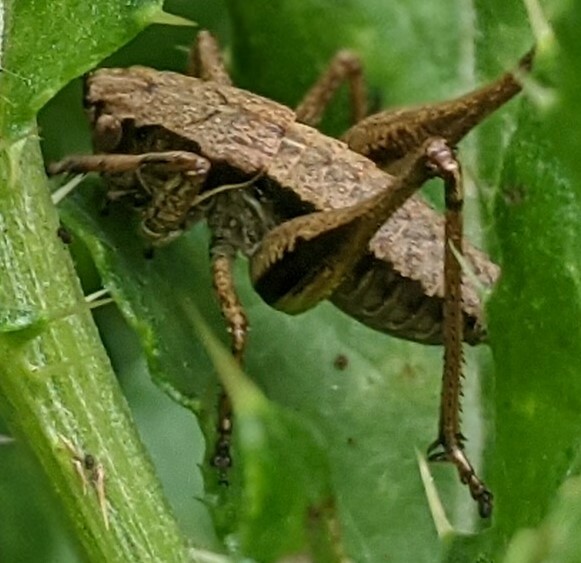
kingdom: Animalia
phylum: Arthropoda
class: Insecta
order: Orthoptera
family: Tettigoniidae
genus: Pholidoptera
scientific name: Pholidoptera griseoaptera
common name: Dark bush-cricket
